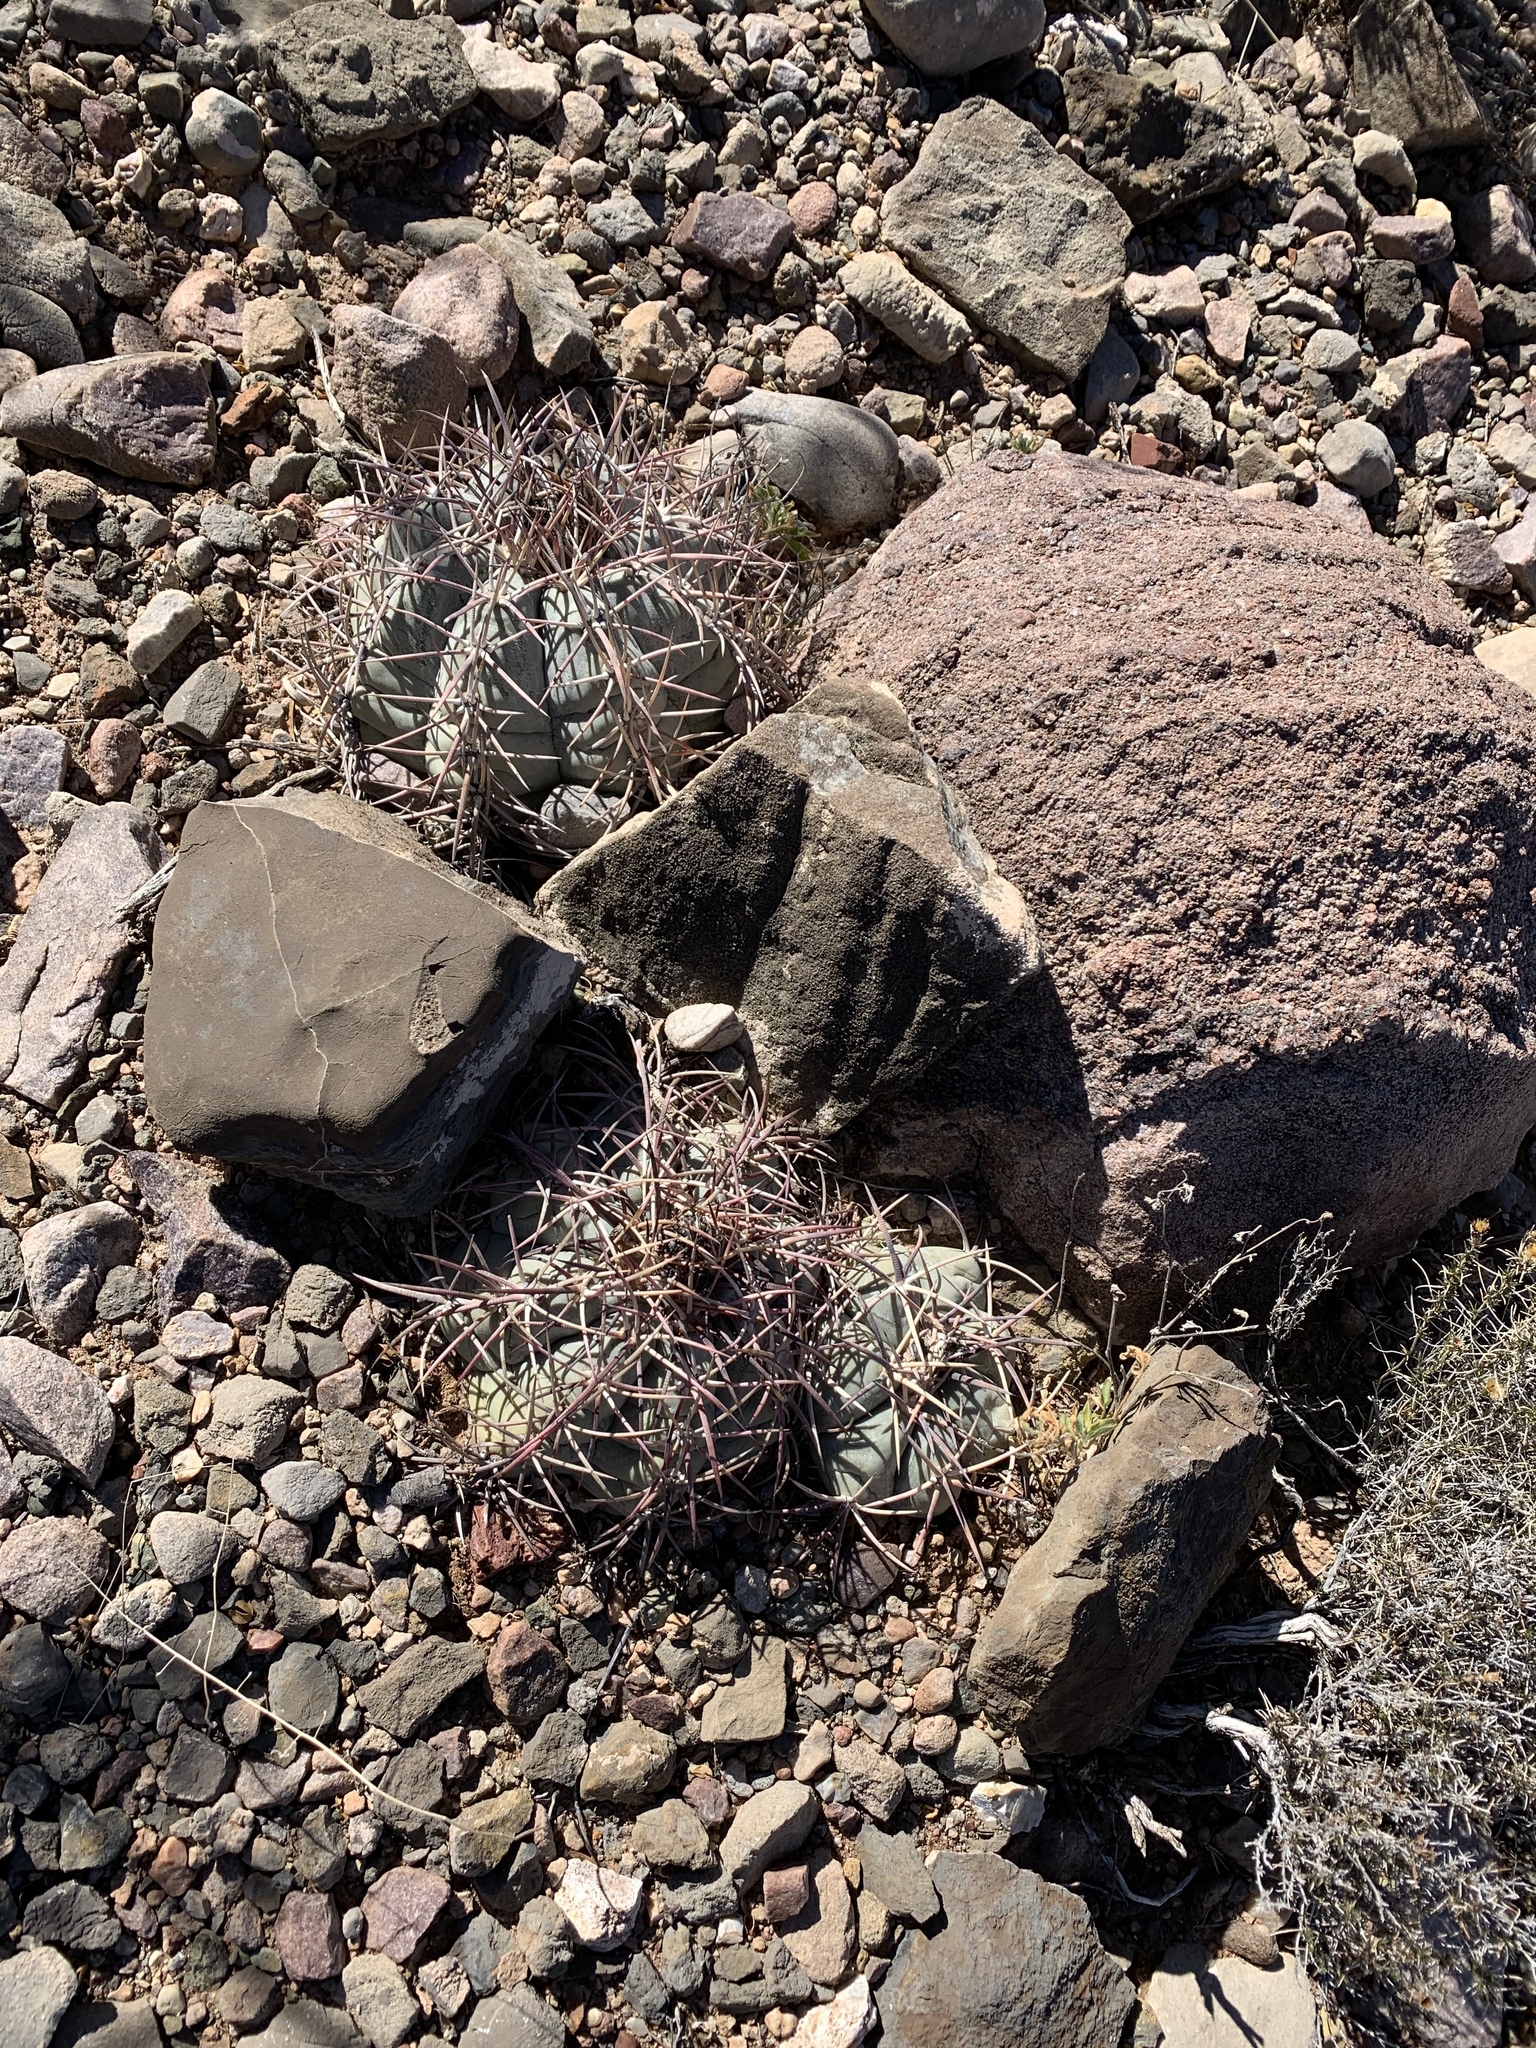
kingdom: Plantae
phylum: Tracheophyta
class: Magnoliopsida
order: Caryophyllales
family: Cactaceae
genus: Echinocactus
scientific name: Echinocactus horizonthalonius
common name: Devilshead
